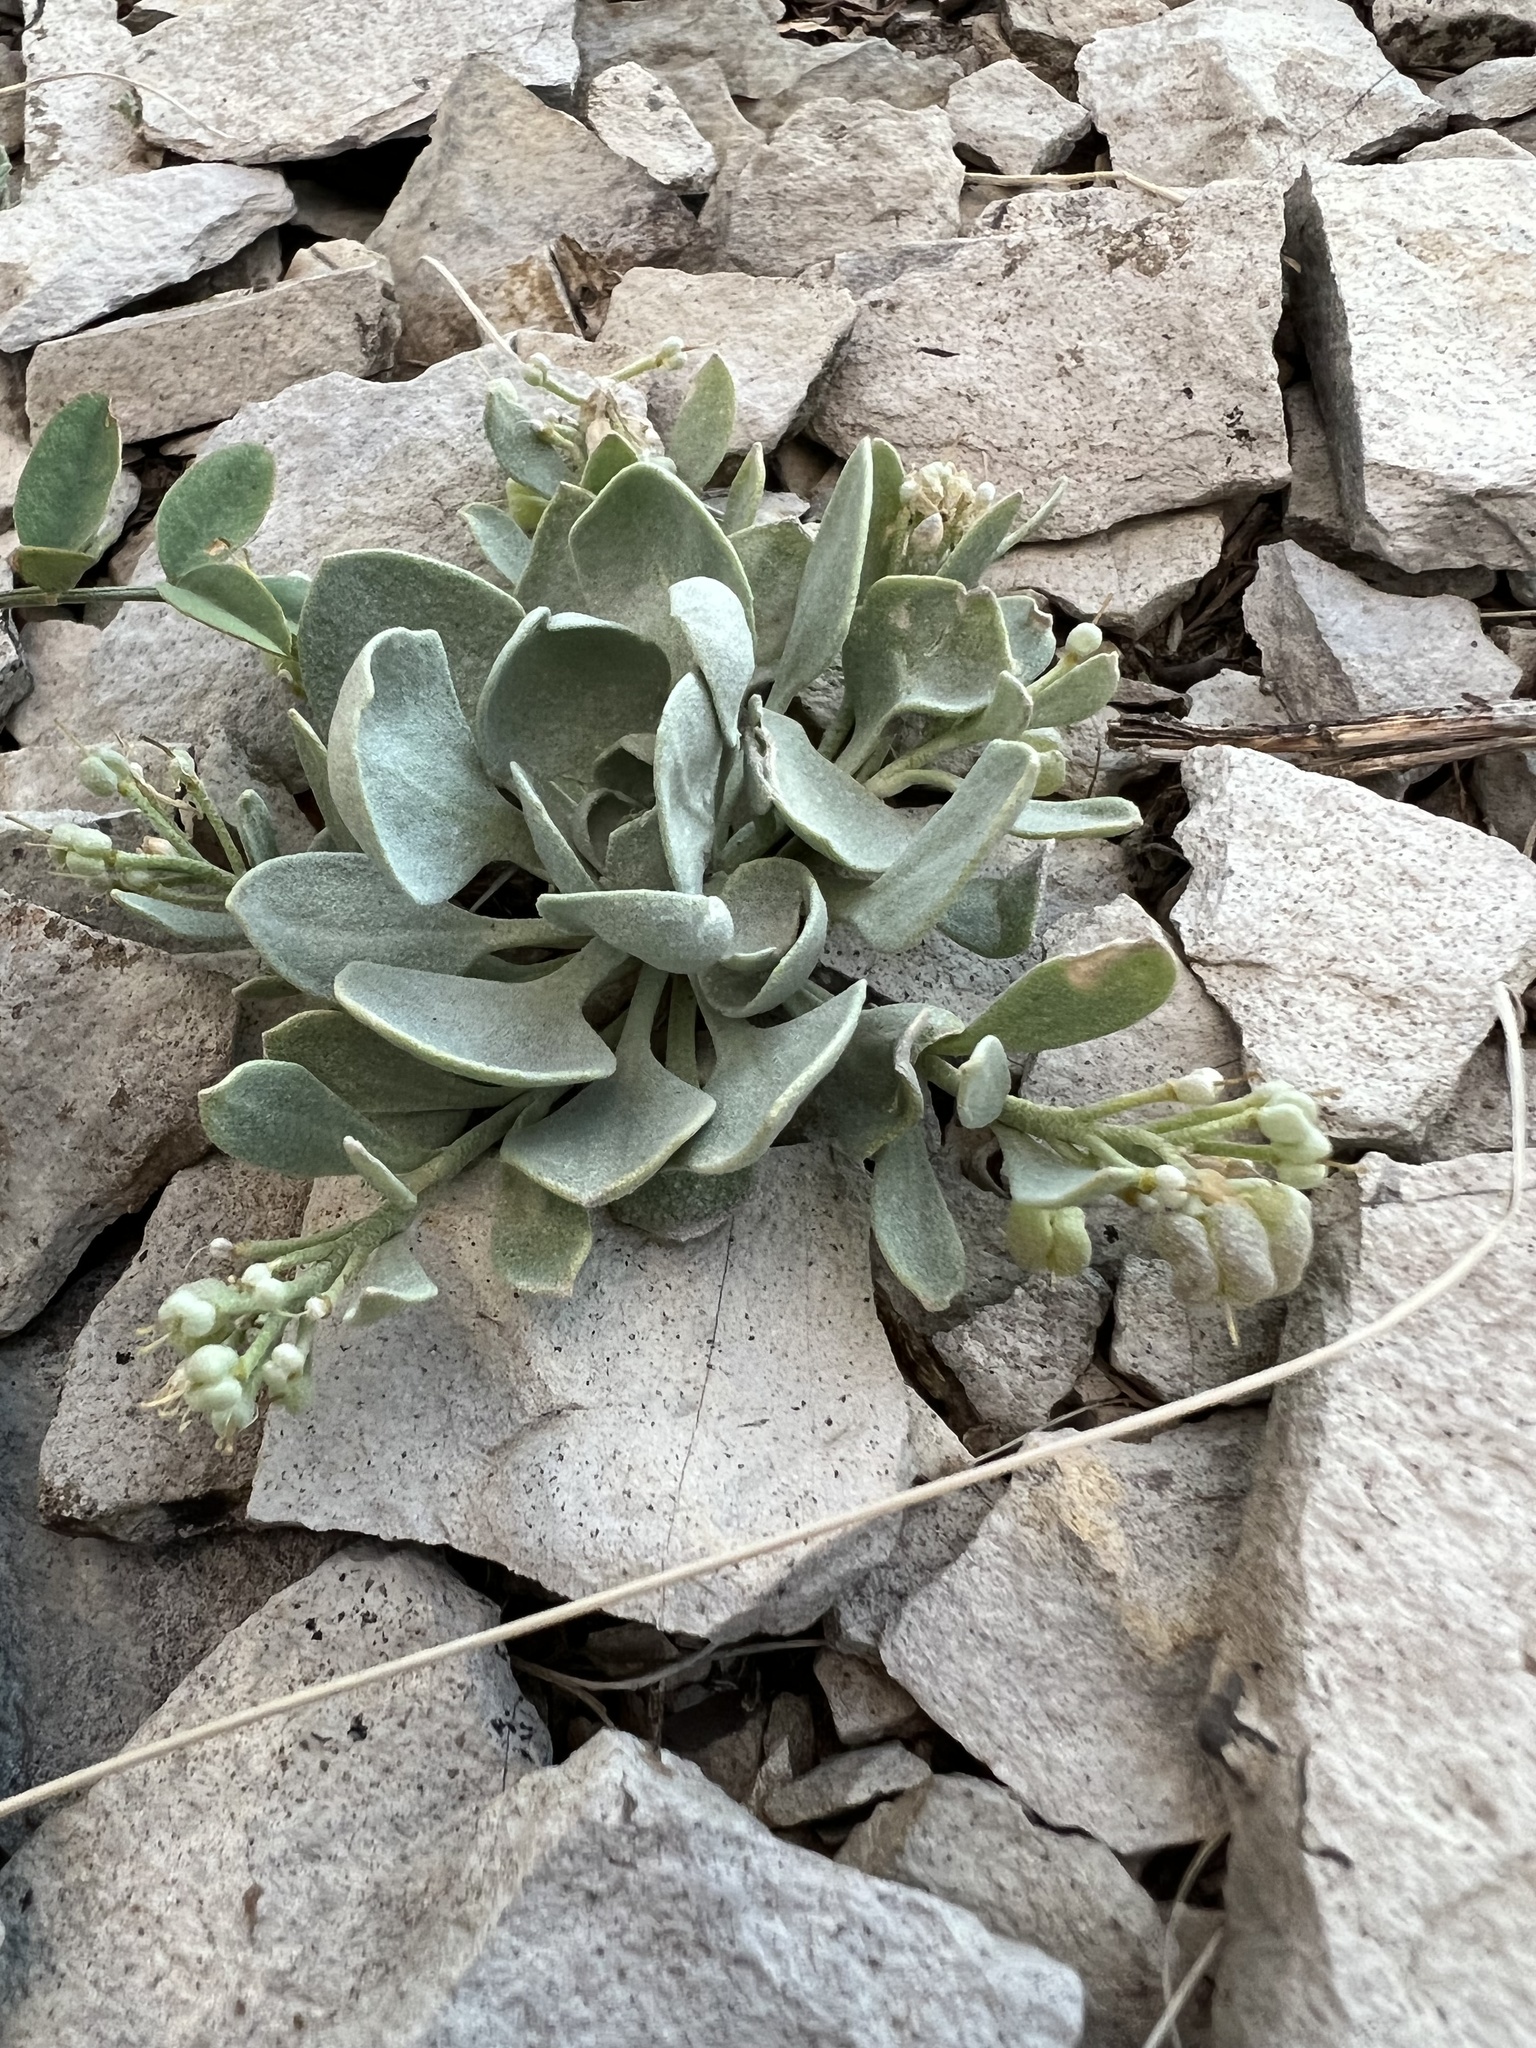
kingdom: Plantae
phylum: Tracheophyta
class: Magnoliopsida
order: Brassicales
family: Brassicaceae
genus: Physaria
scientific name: Physaria bellii
